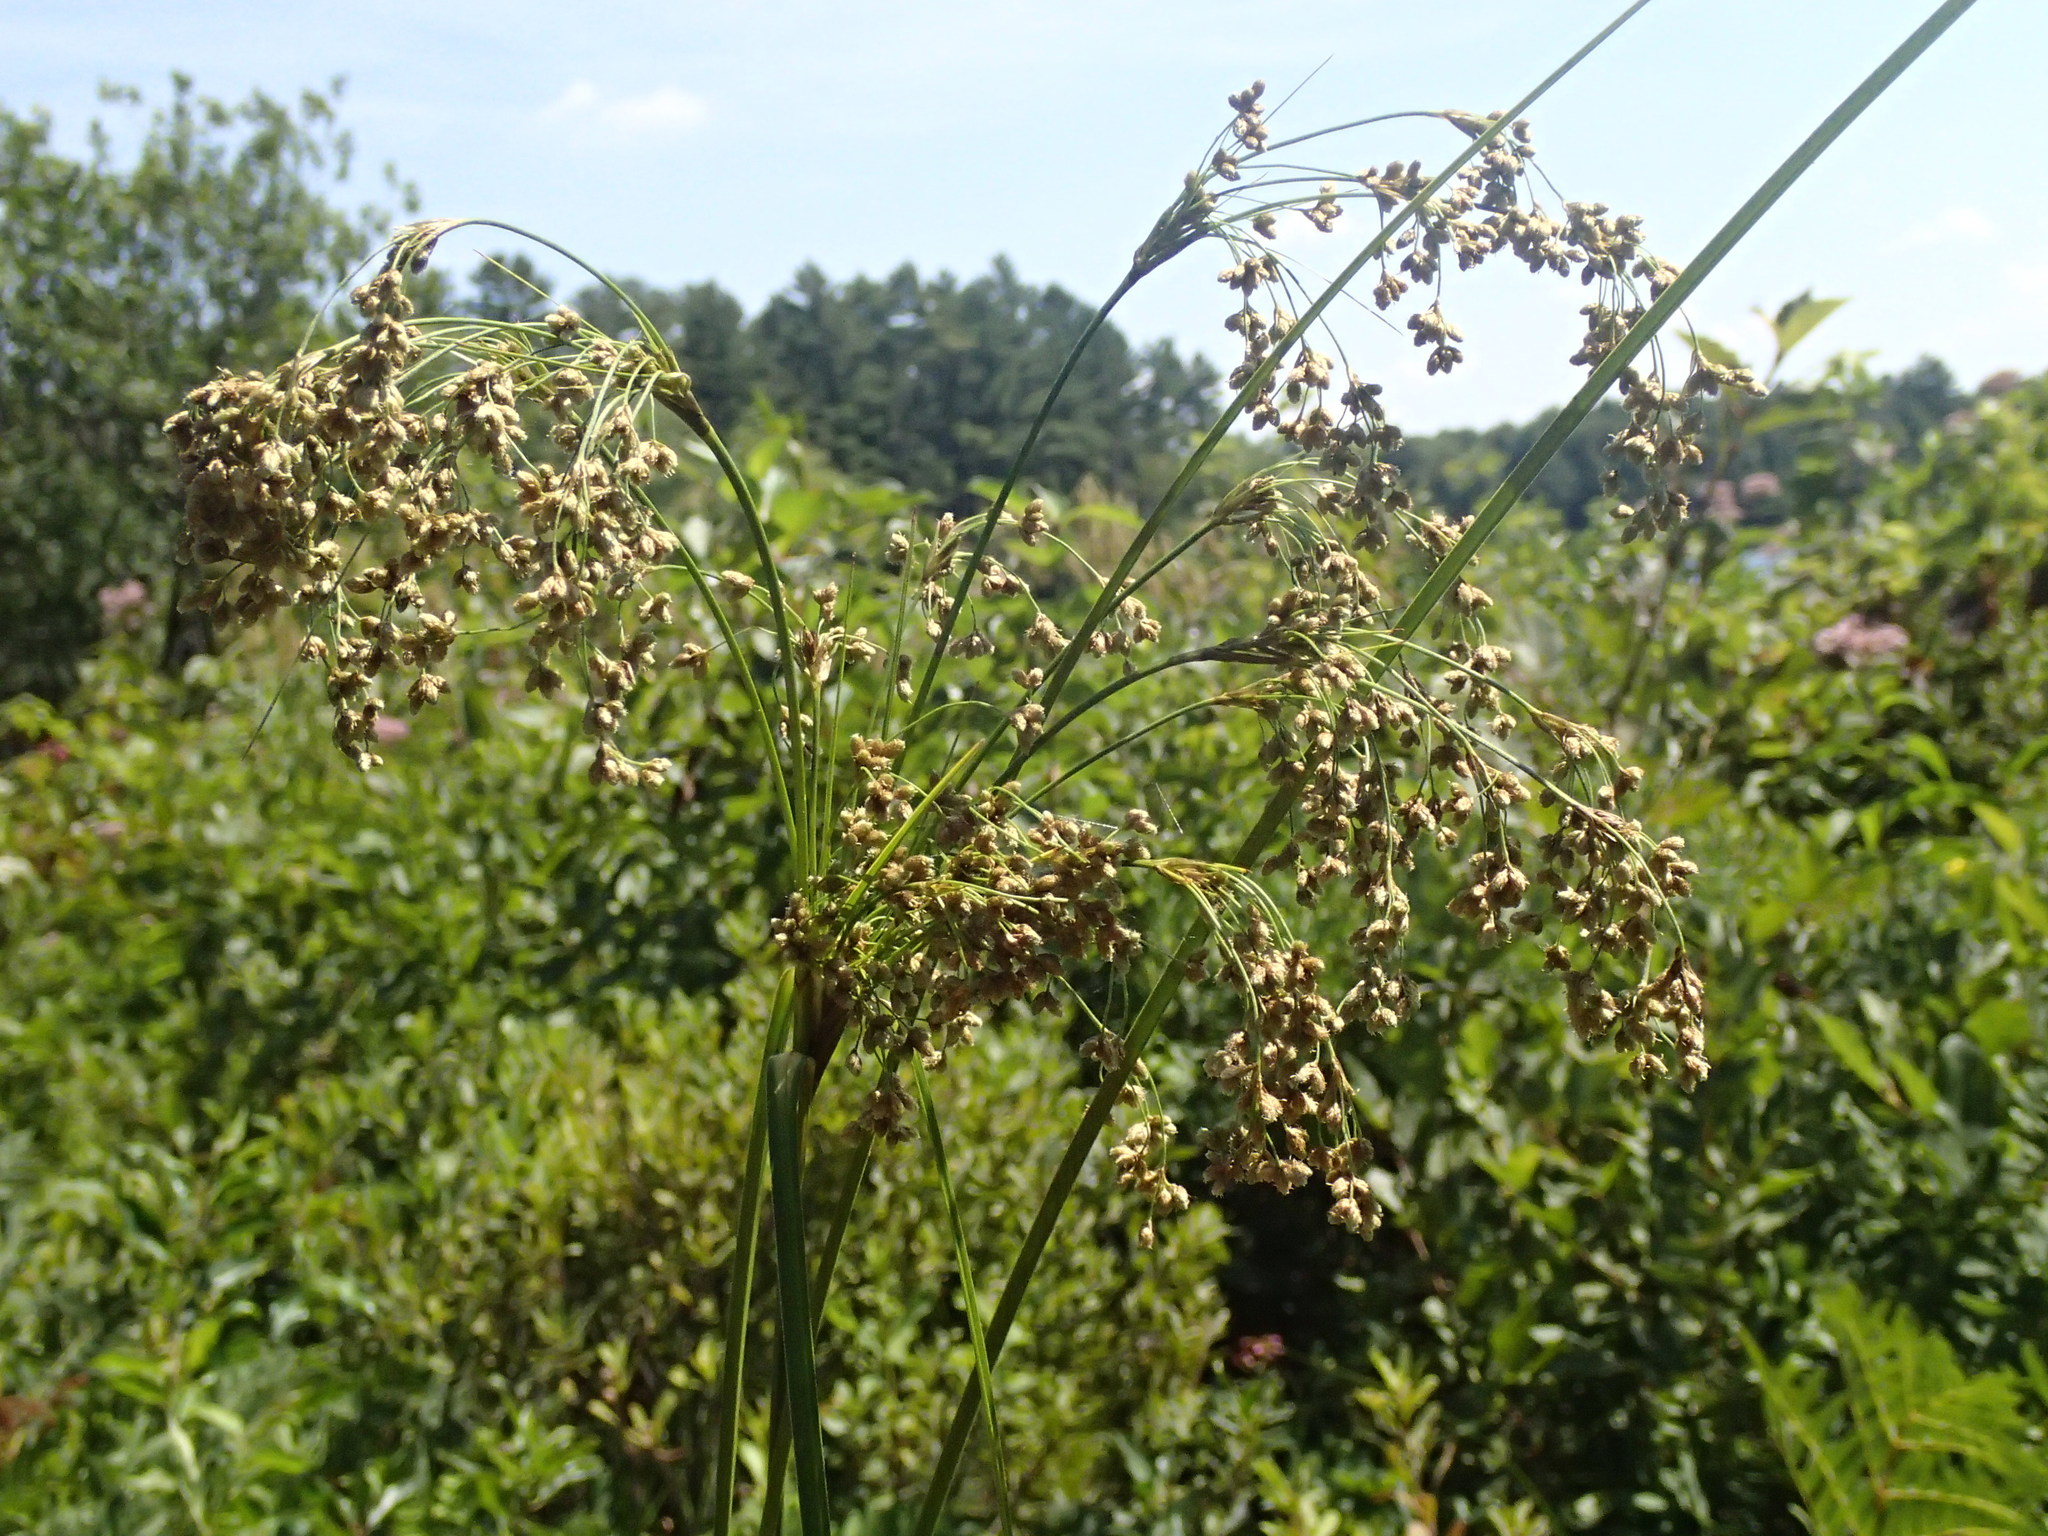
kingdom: Plantae
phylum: Tracheophyta
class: Liliopsida
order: Poales
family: Cyperaceae
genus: Scirpus
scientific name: Scirpus cyperinus
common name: Black-sheathed bulrush
